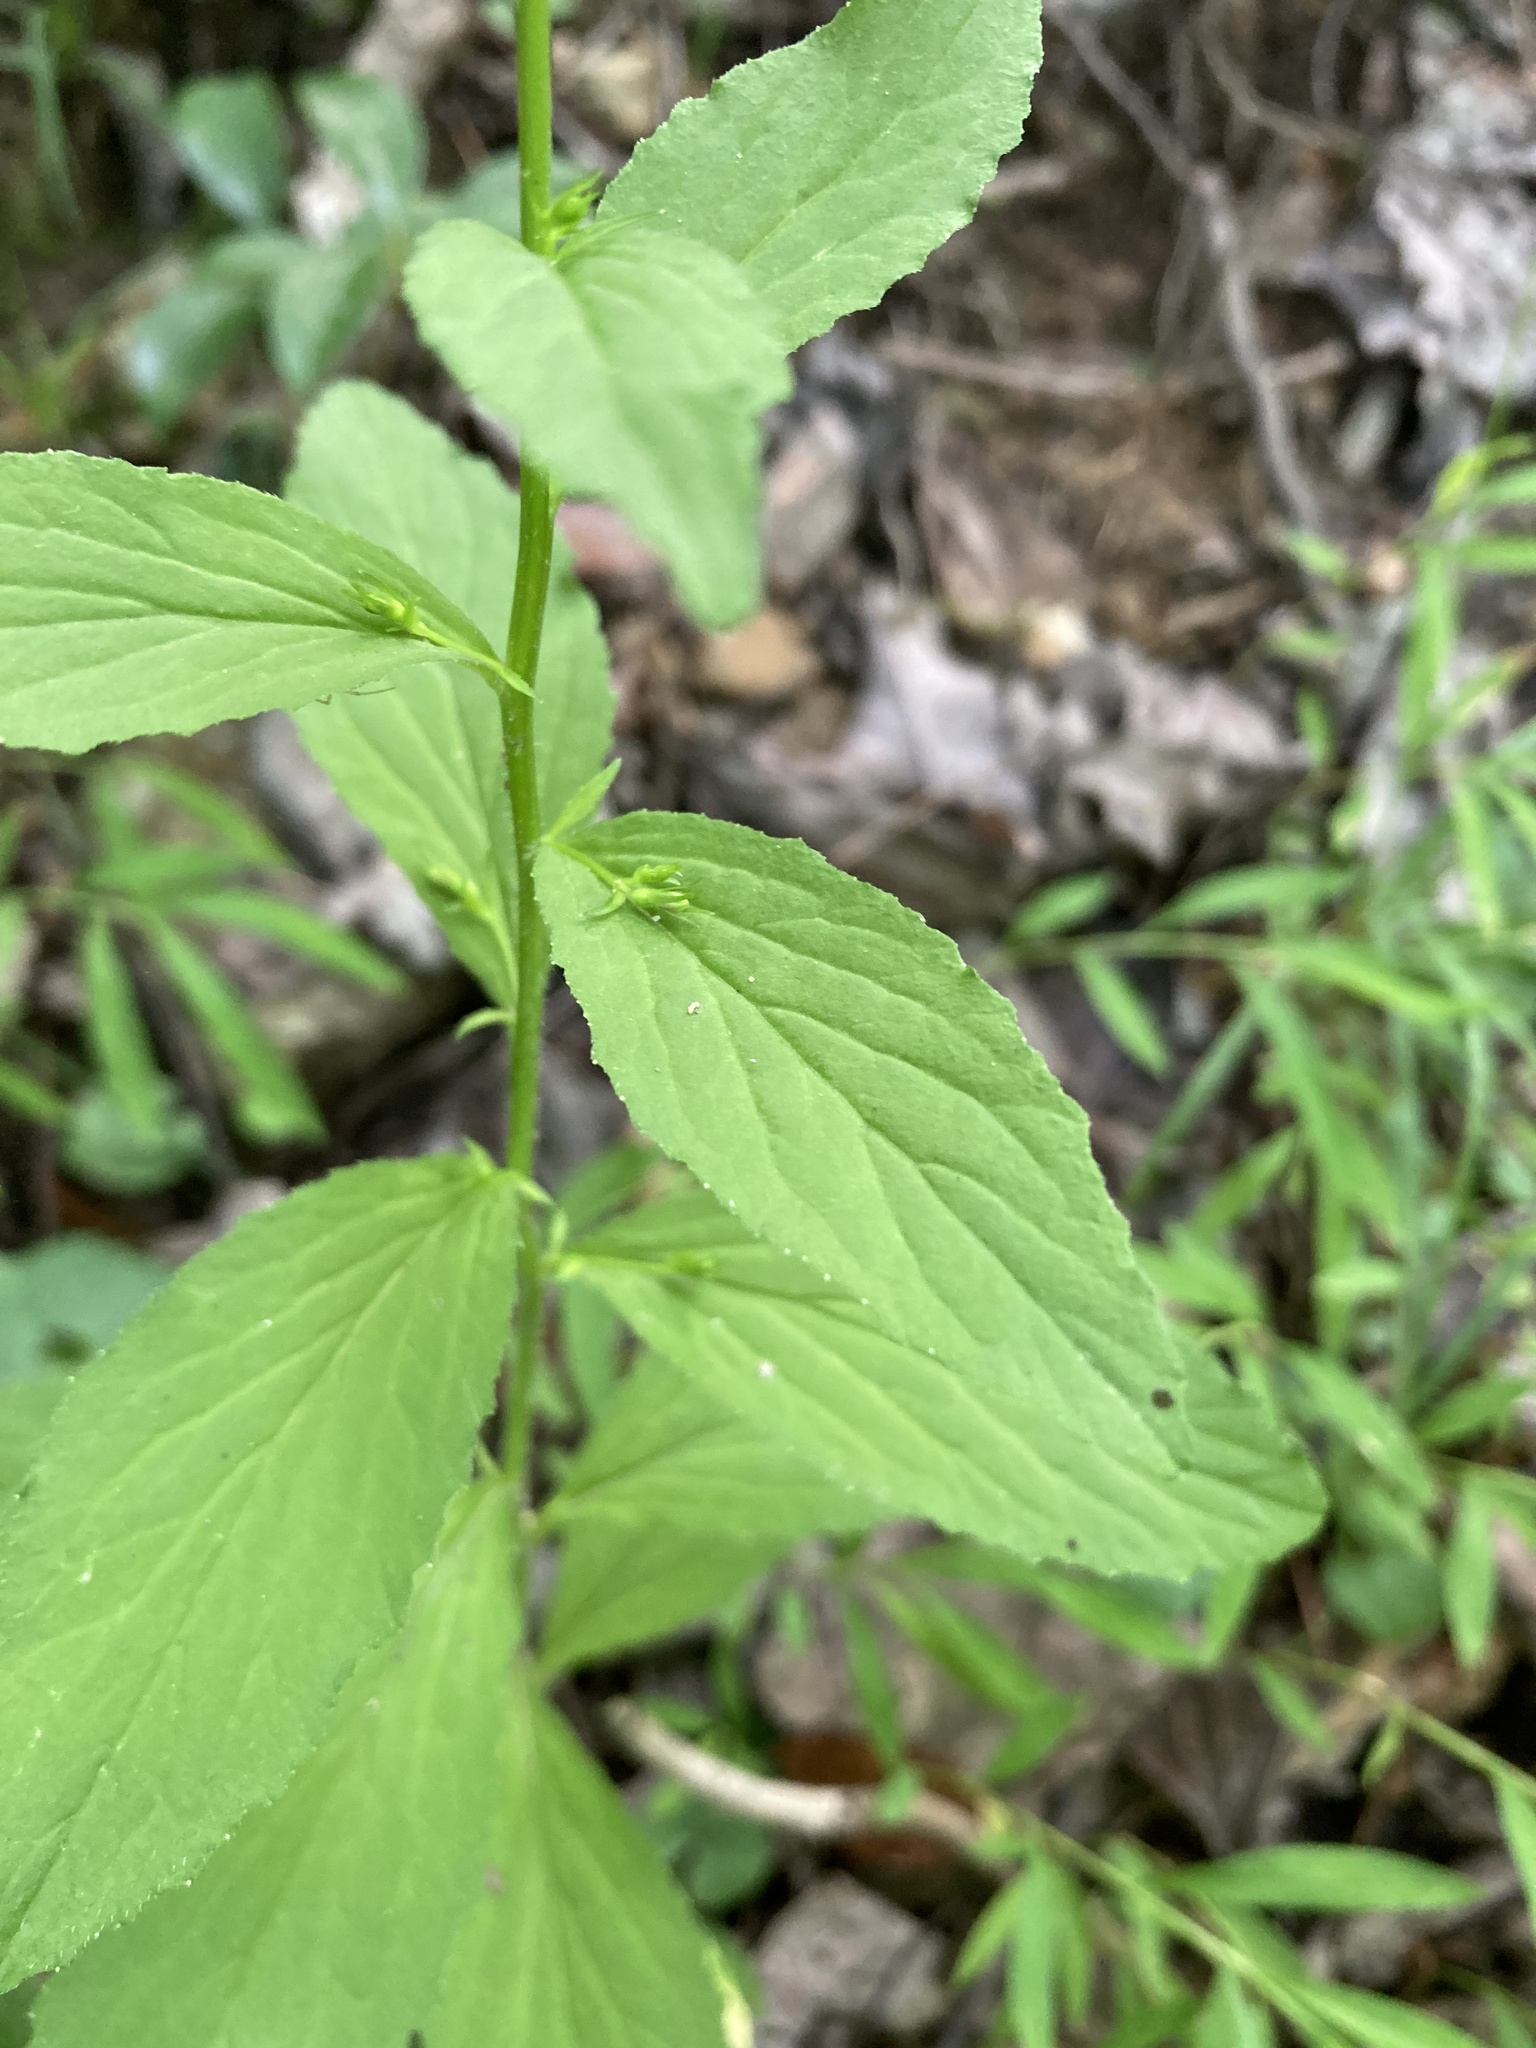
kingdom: Plantae
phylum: Tracheophyta
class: Magnoliopsida
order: Asterales
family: Campanulaceae
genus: Lobelia
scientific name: Lobelia inflata
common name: Indian tobacco
